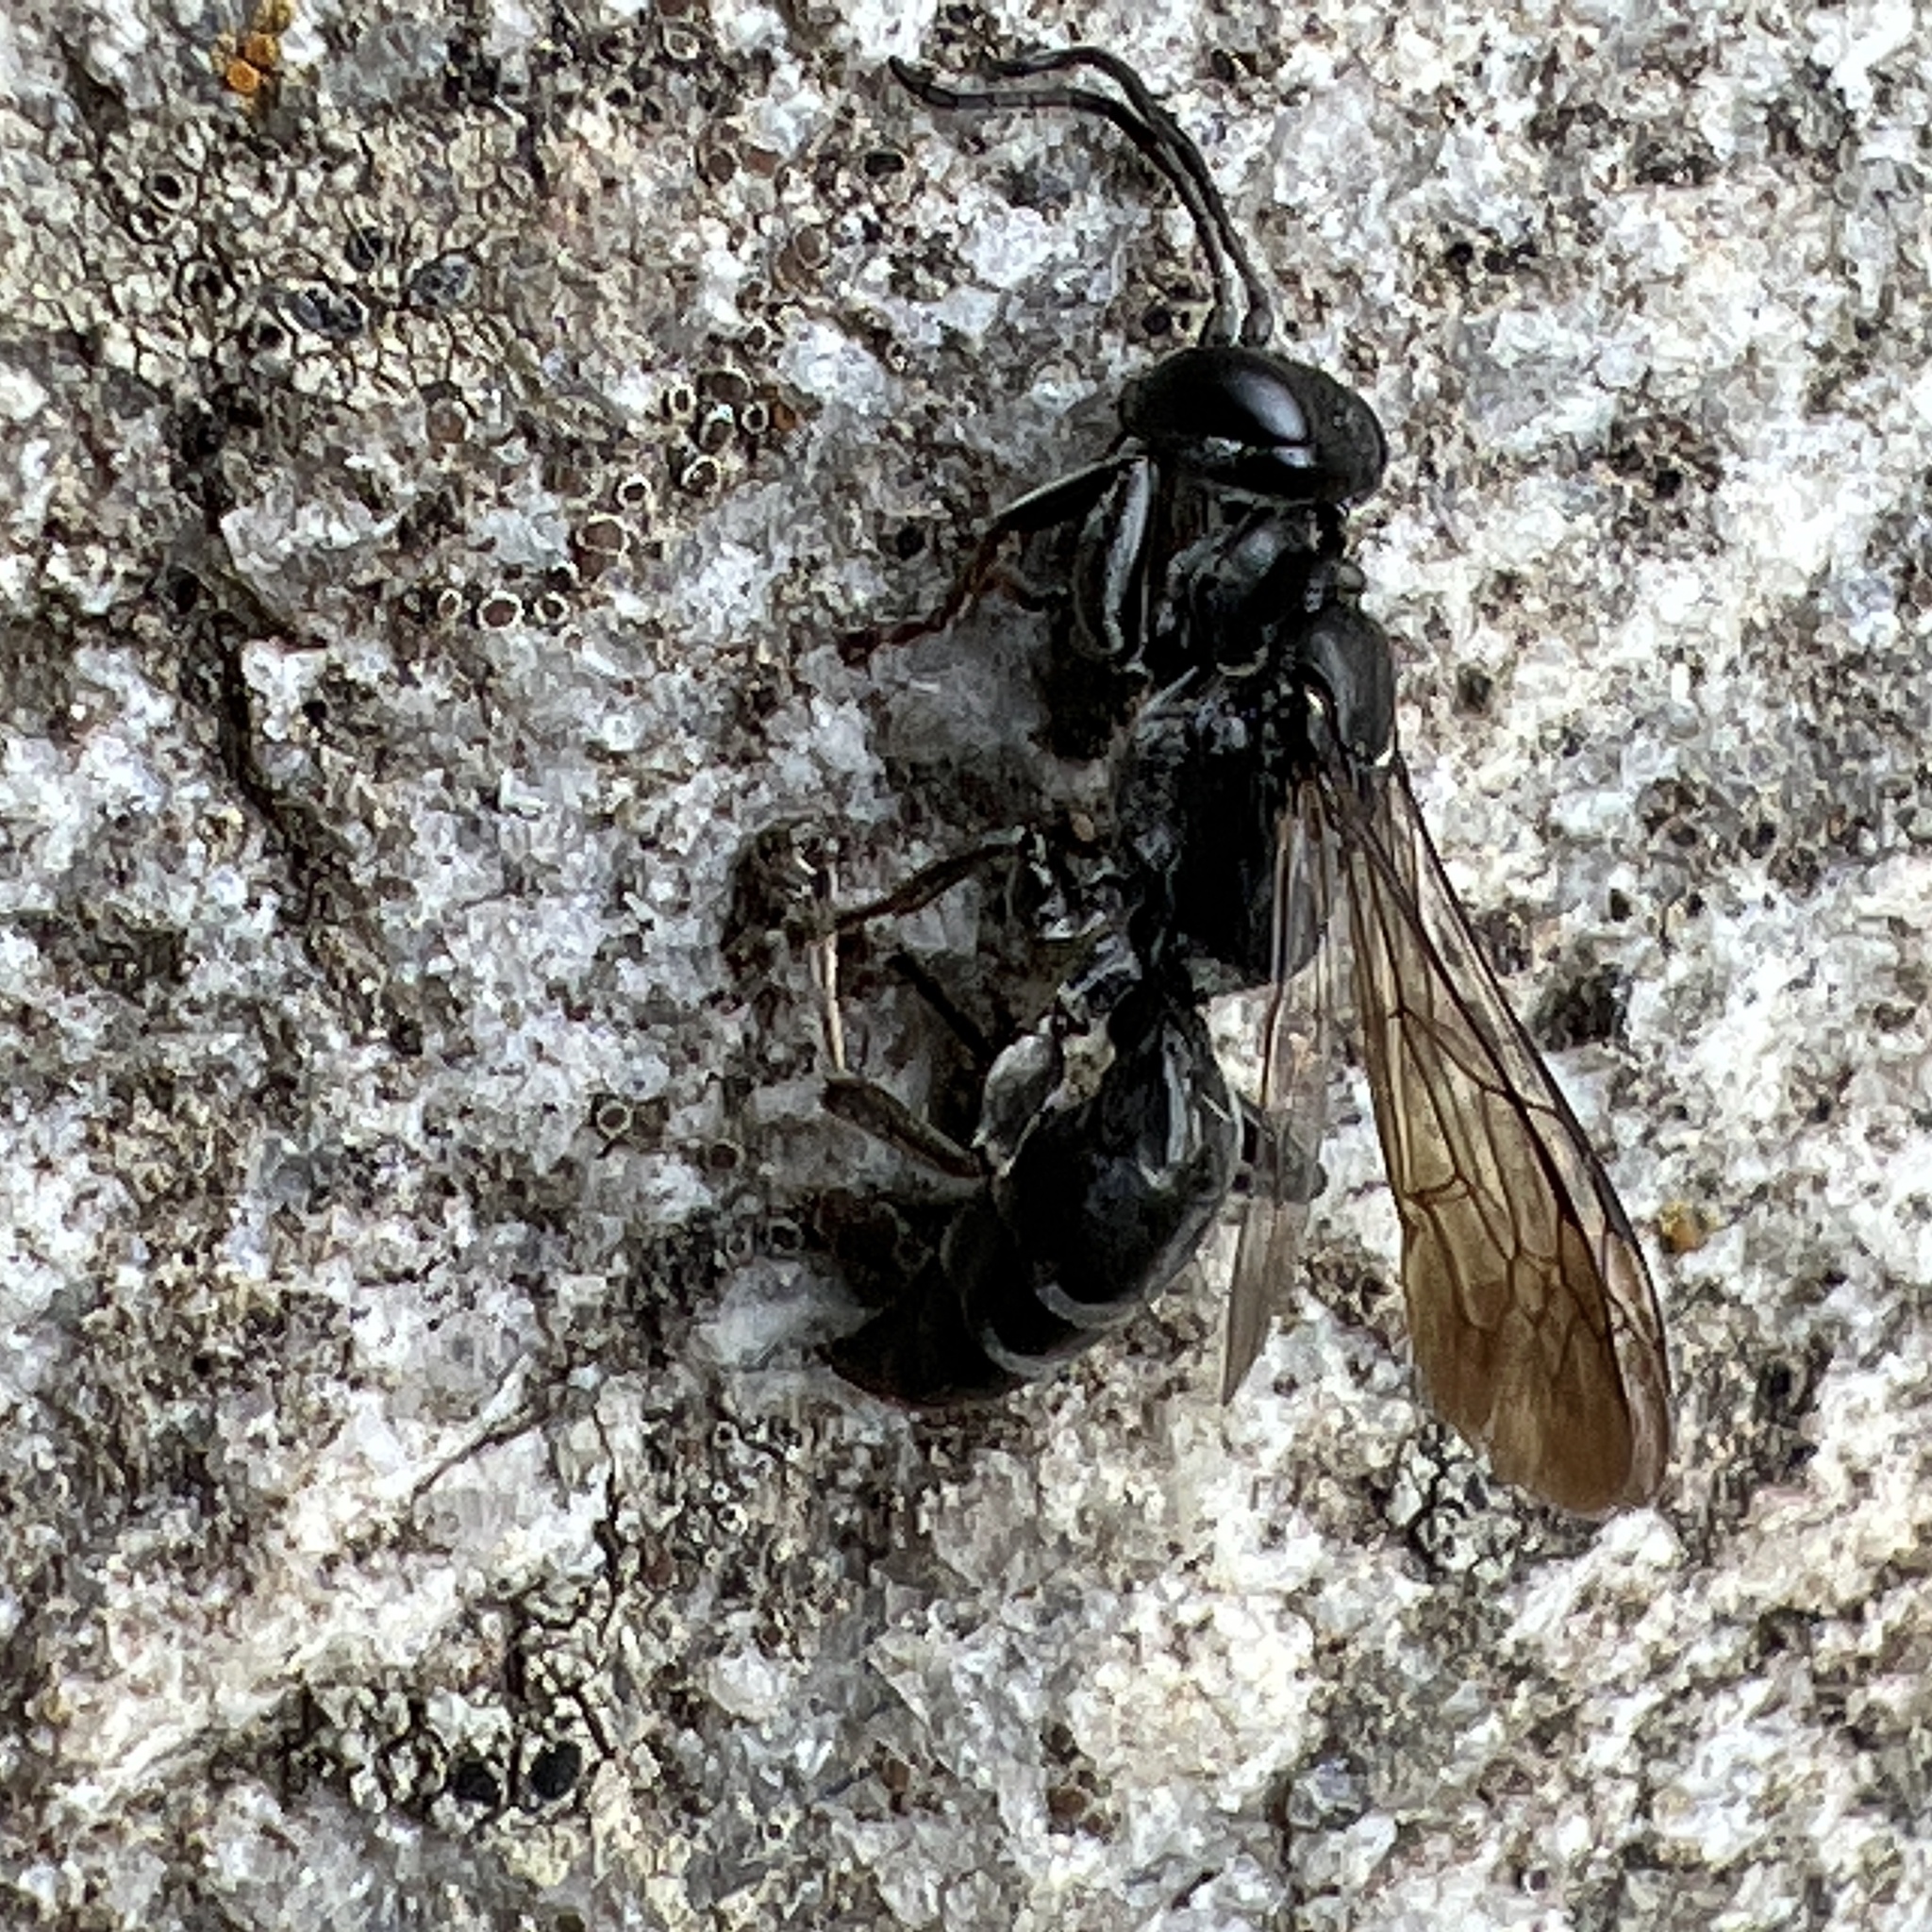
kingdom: Animalia
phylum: Arthropoda
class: Insecta
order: Hymenoptera
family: Crabronidae
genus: Lyroda
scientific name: Lyroda subita
